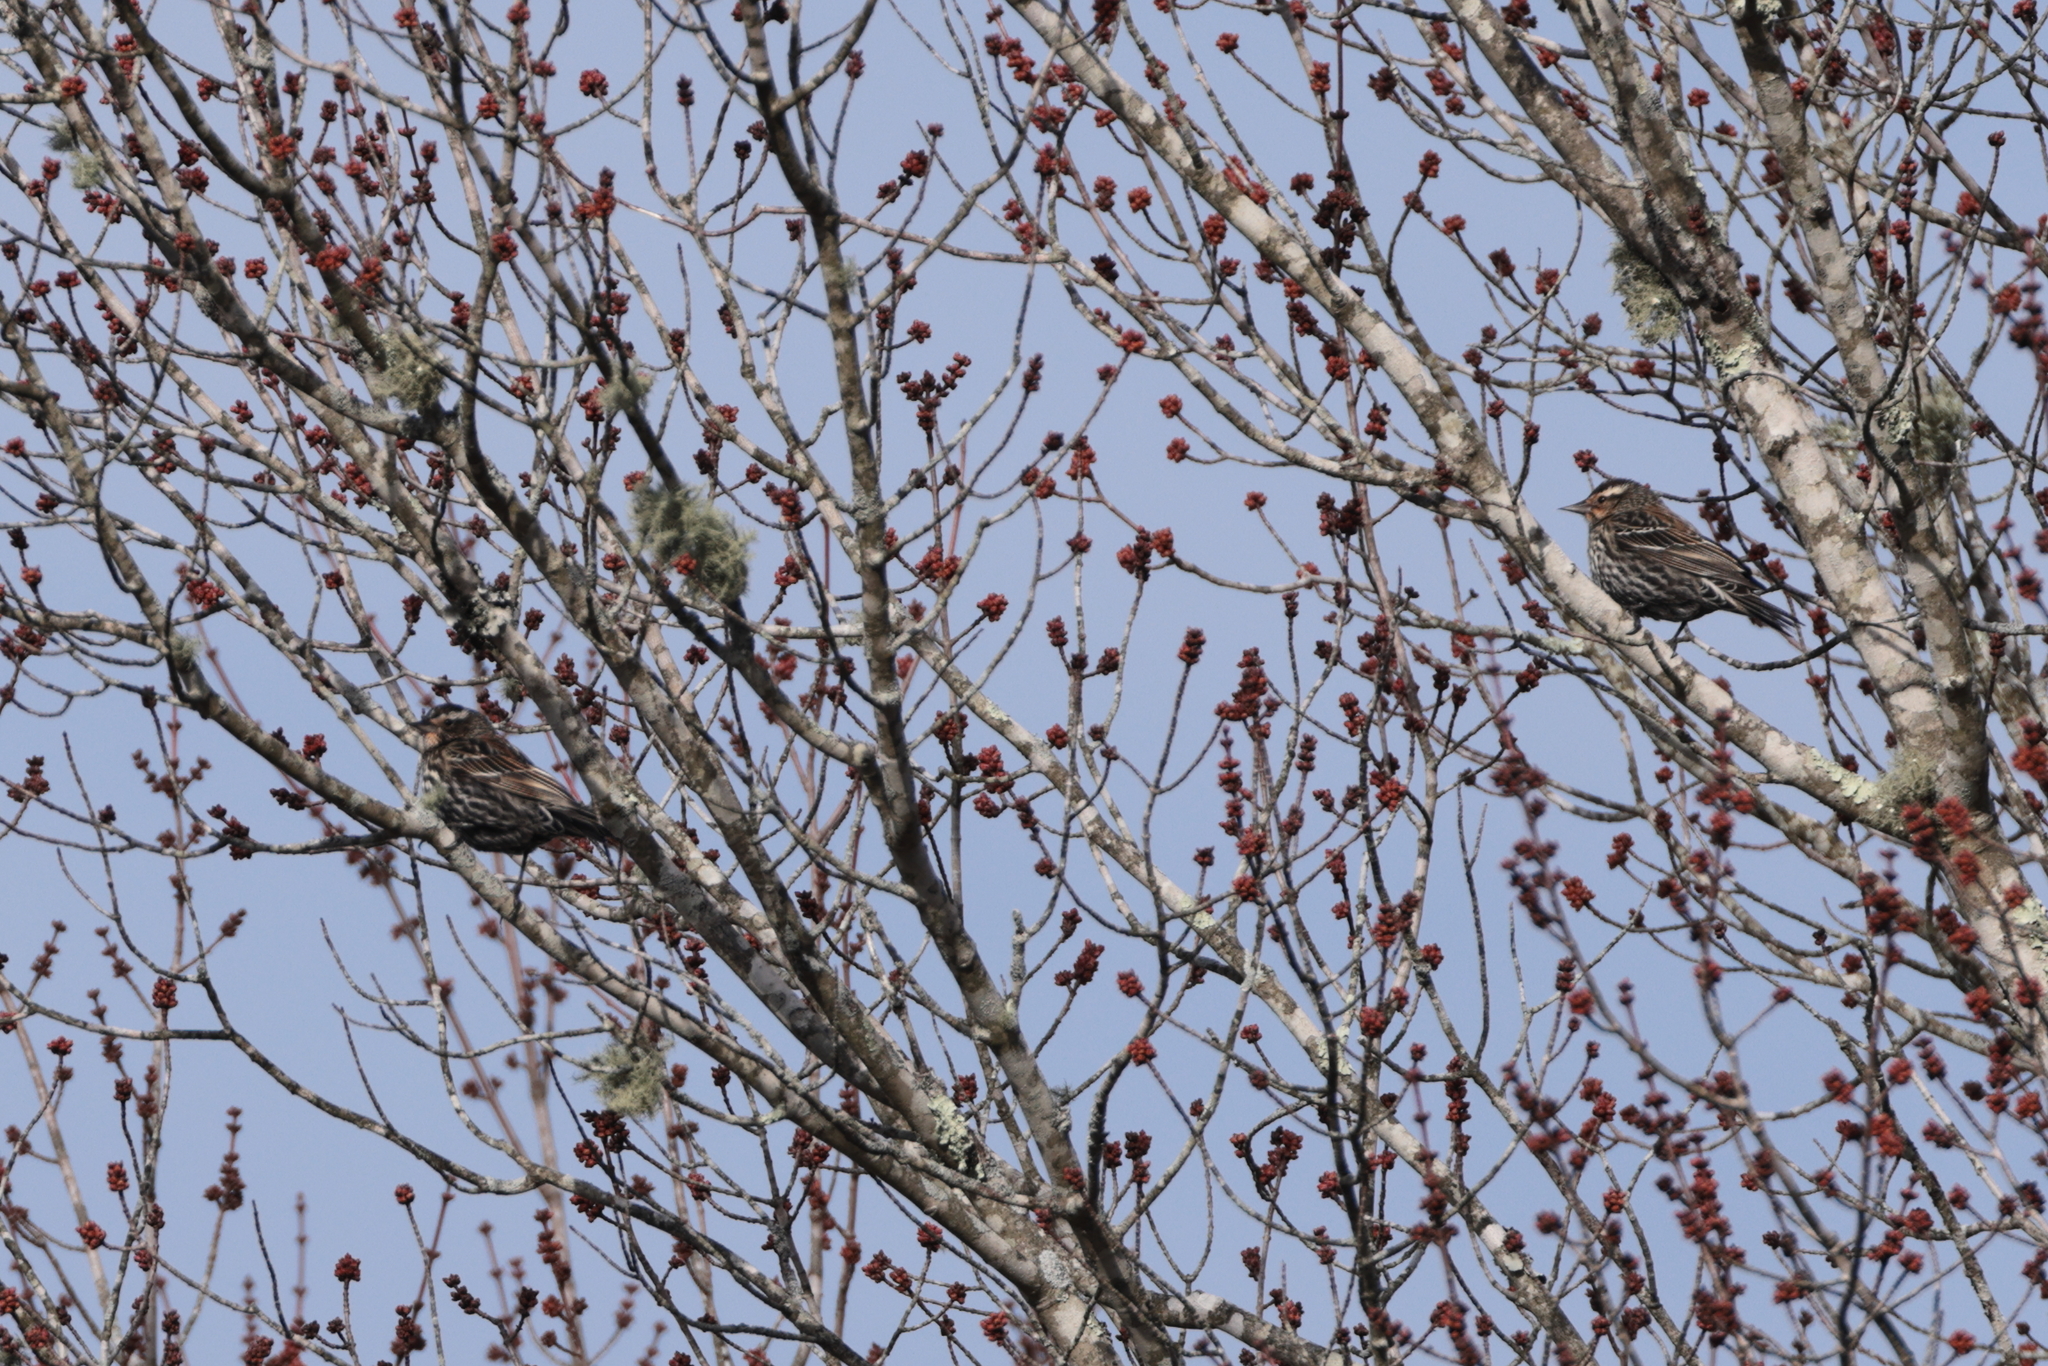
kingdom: Animalia
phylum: Chordata
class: Aves
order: Passeriformes
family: Icteridae
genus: Agelaius
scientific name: Agelaius phoeniceus
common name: Red-winged blackbird
